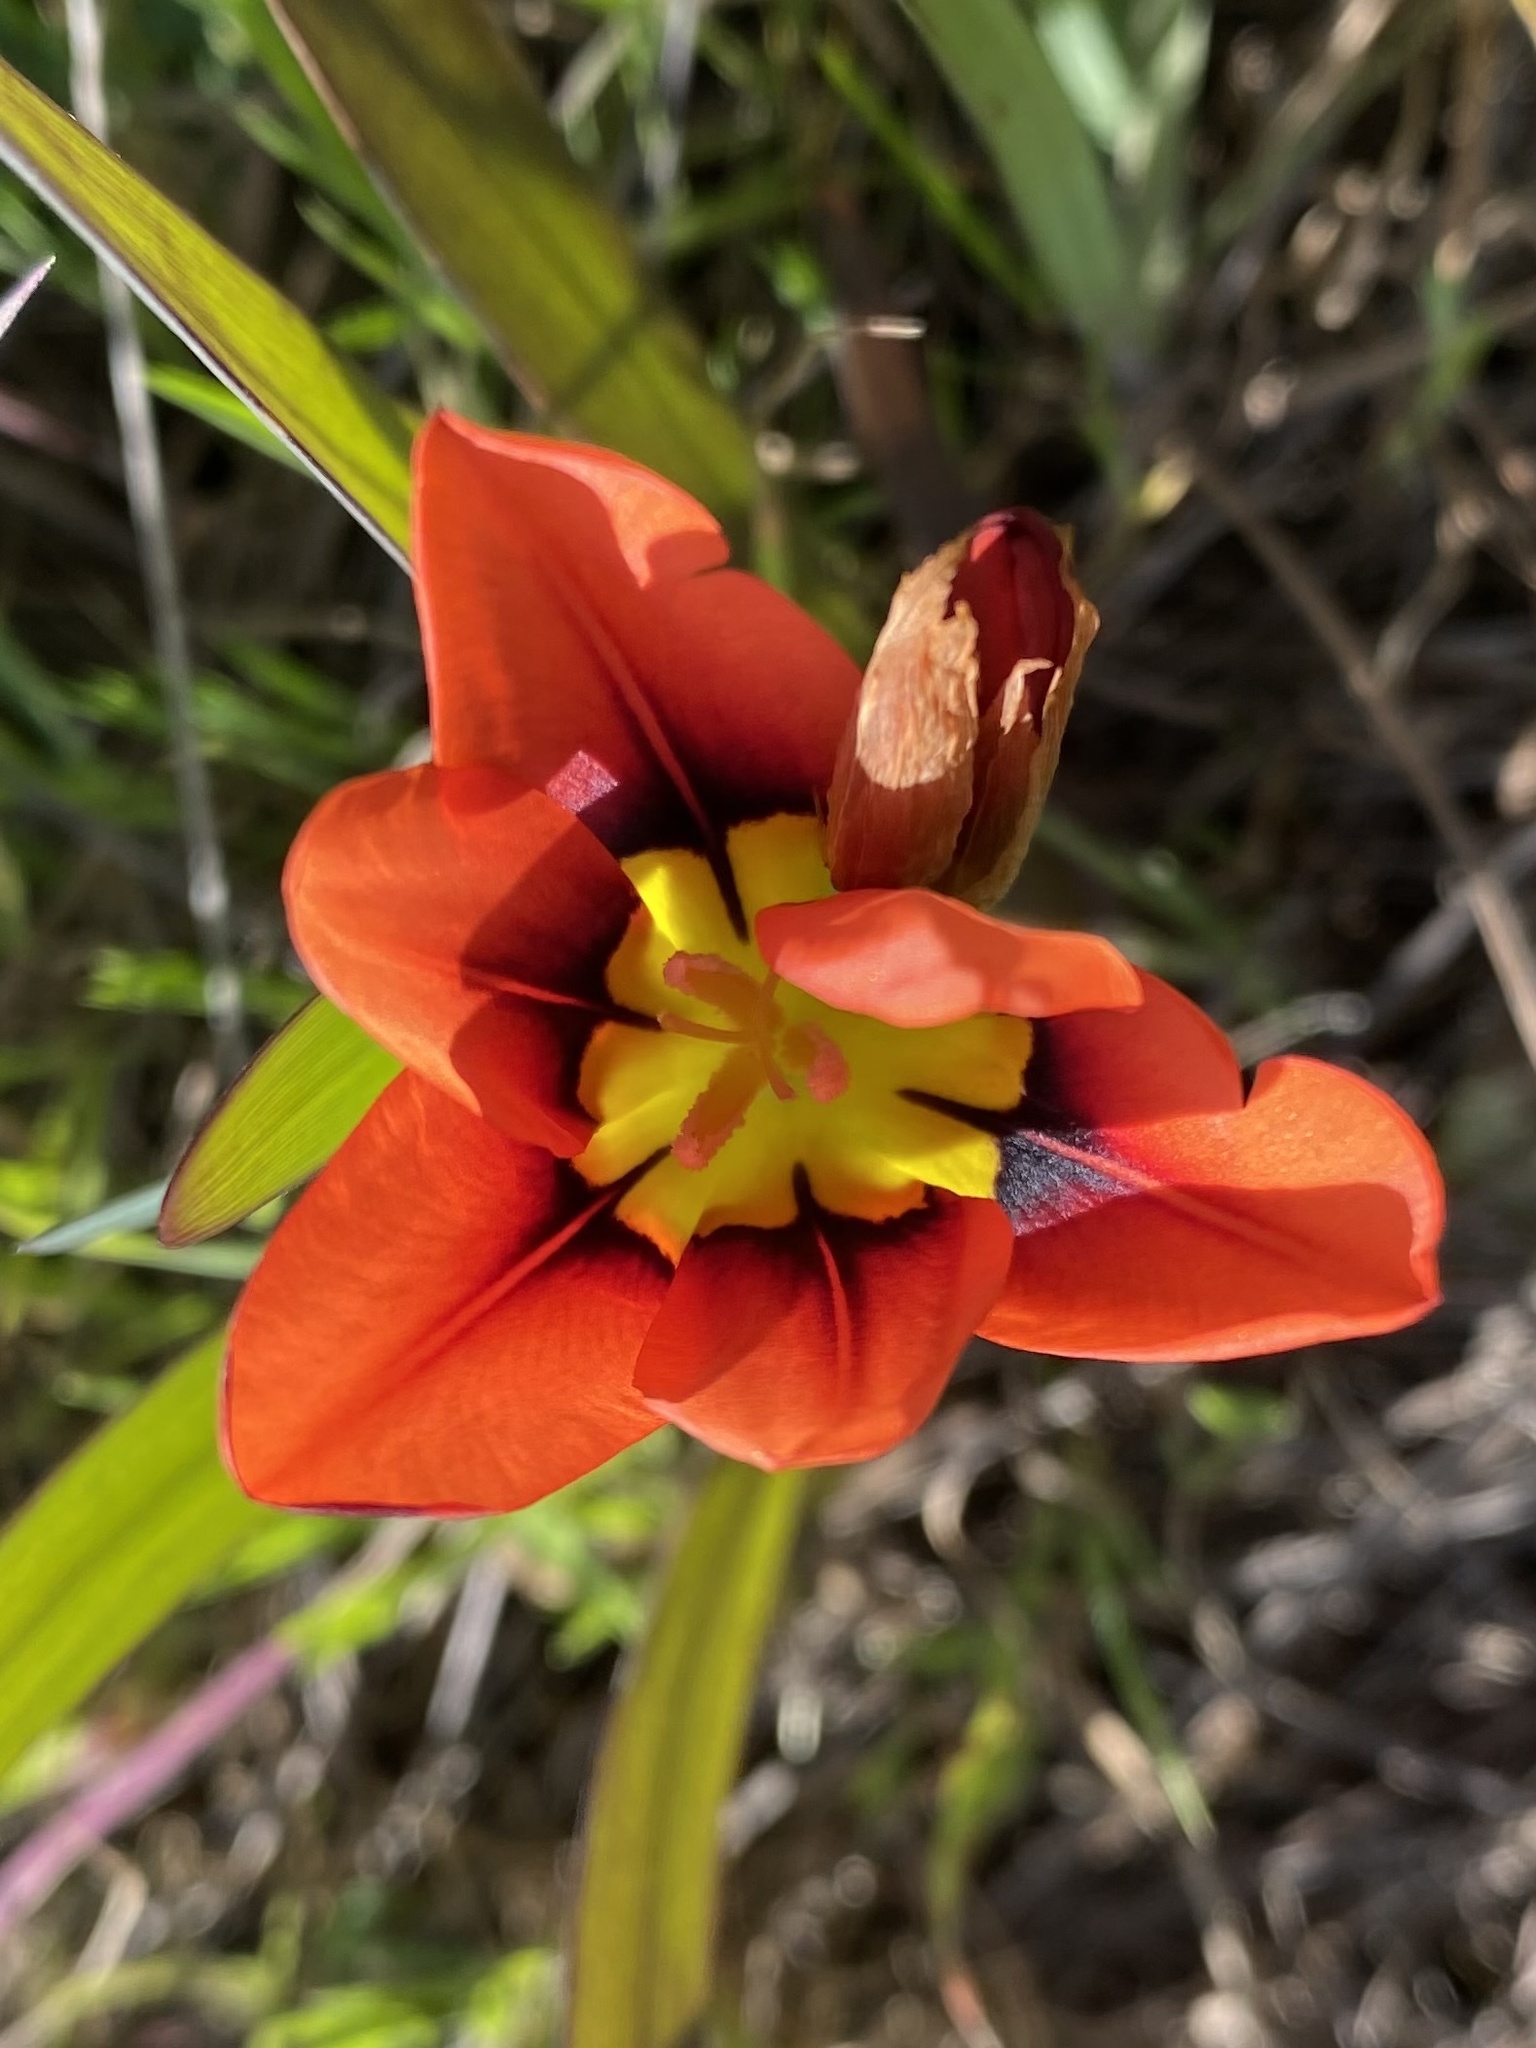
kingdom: Plantae
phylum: Tracheophyta
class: Liliopsida
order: Asparagales
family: Iridaceae
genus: Sparaxis
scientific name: Sparaxis tricolor
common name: Wandflower
